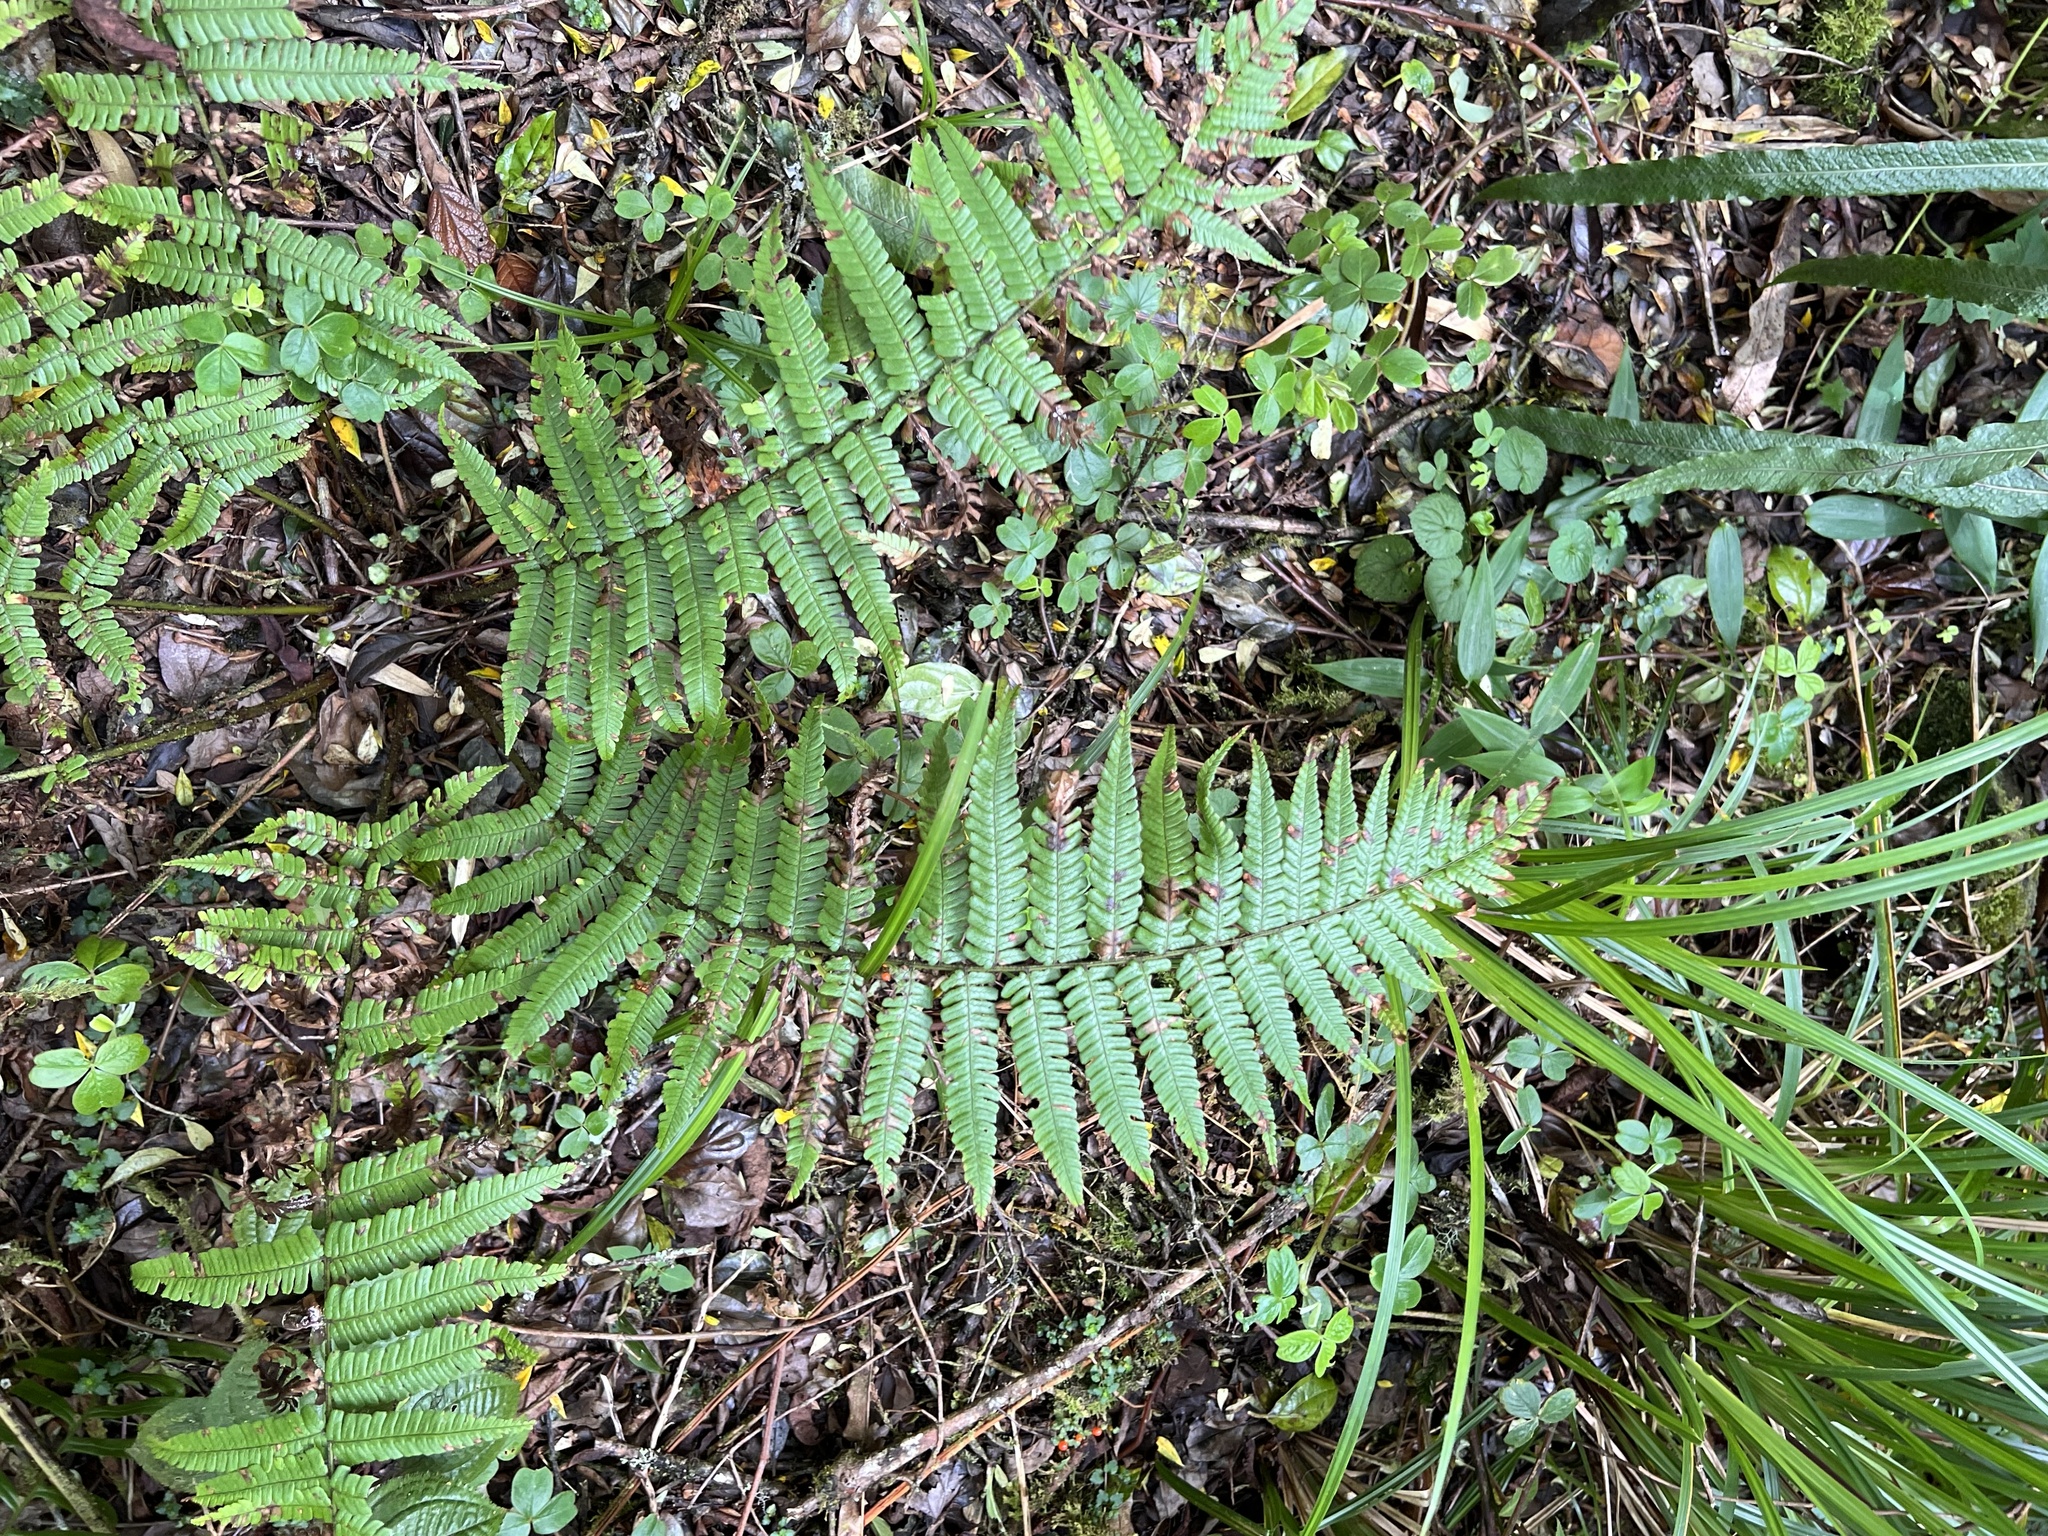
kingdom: Plantae
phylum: Tracheophyta
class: Polypodiopsida
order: Polypodiales
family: Dryopteridaceae
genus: Dryopteris
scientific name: Dryopteris wallichiana
